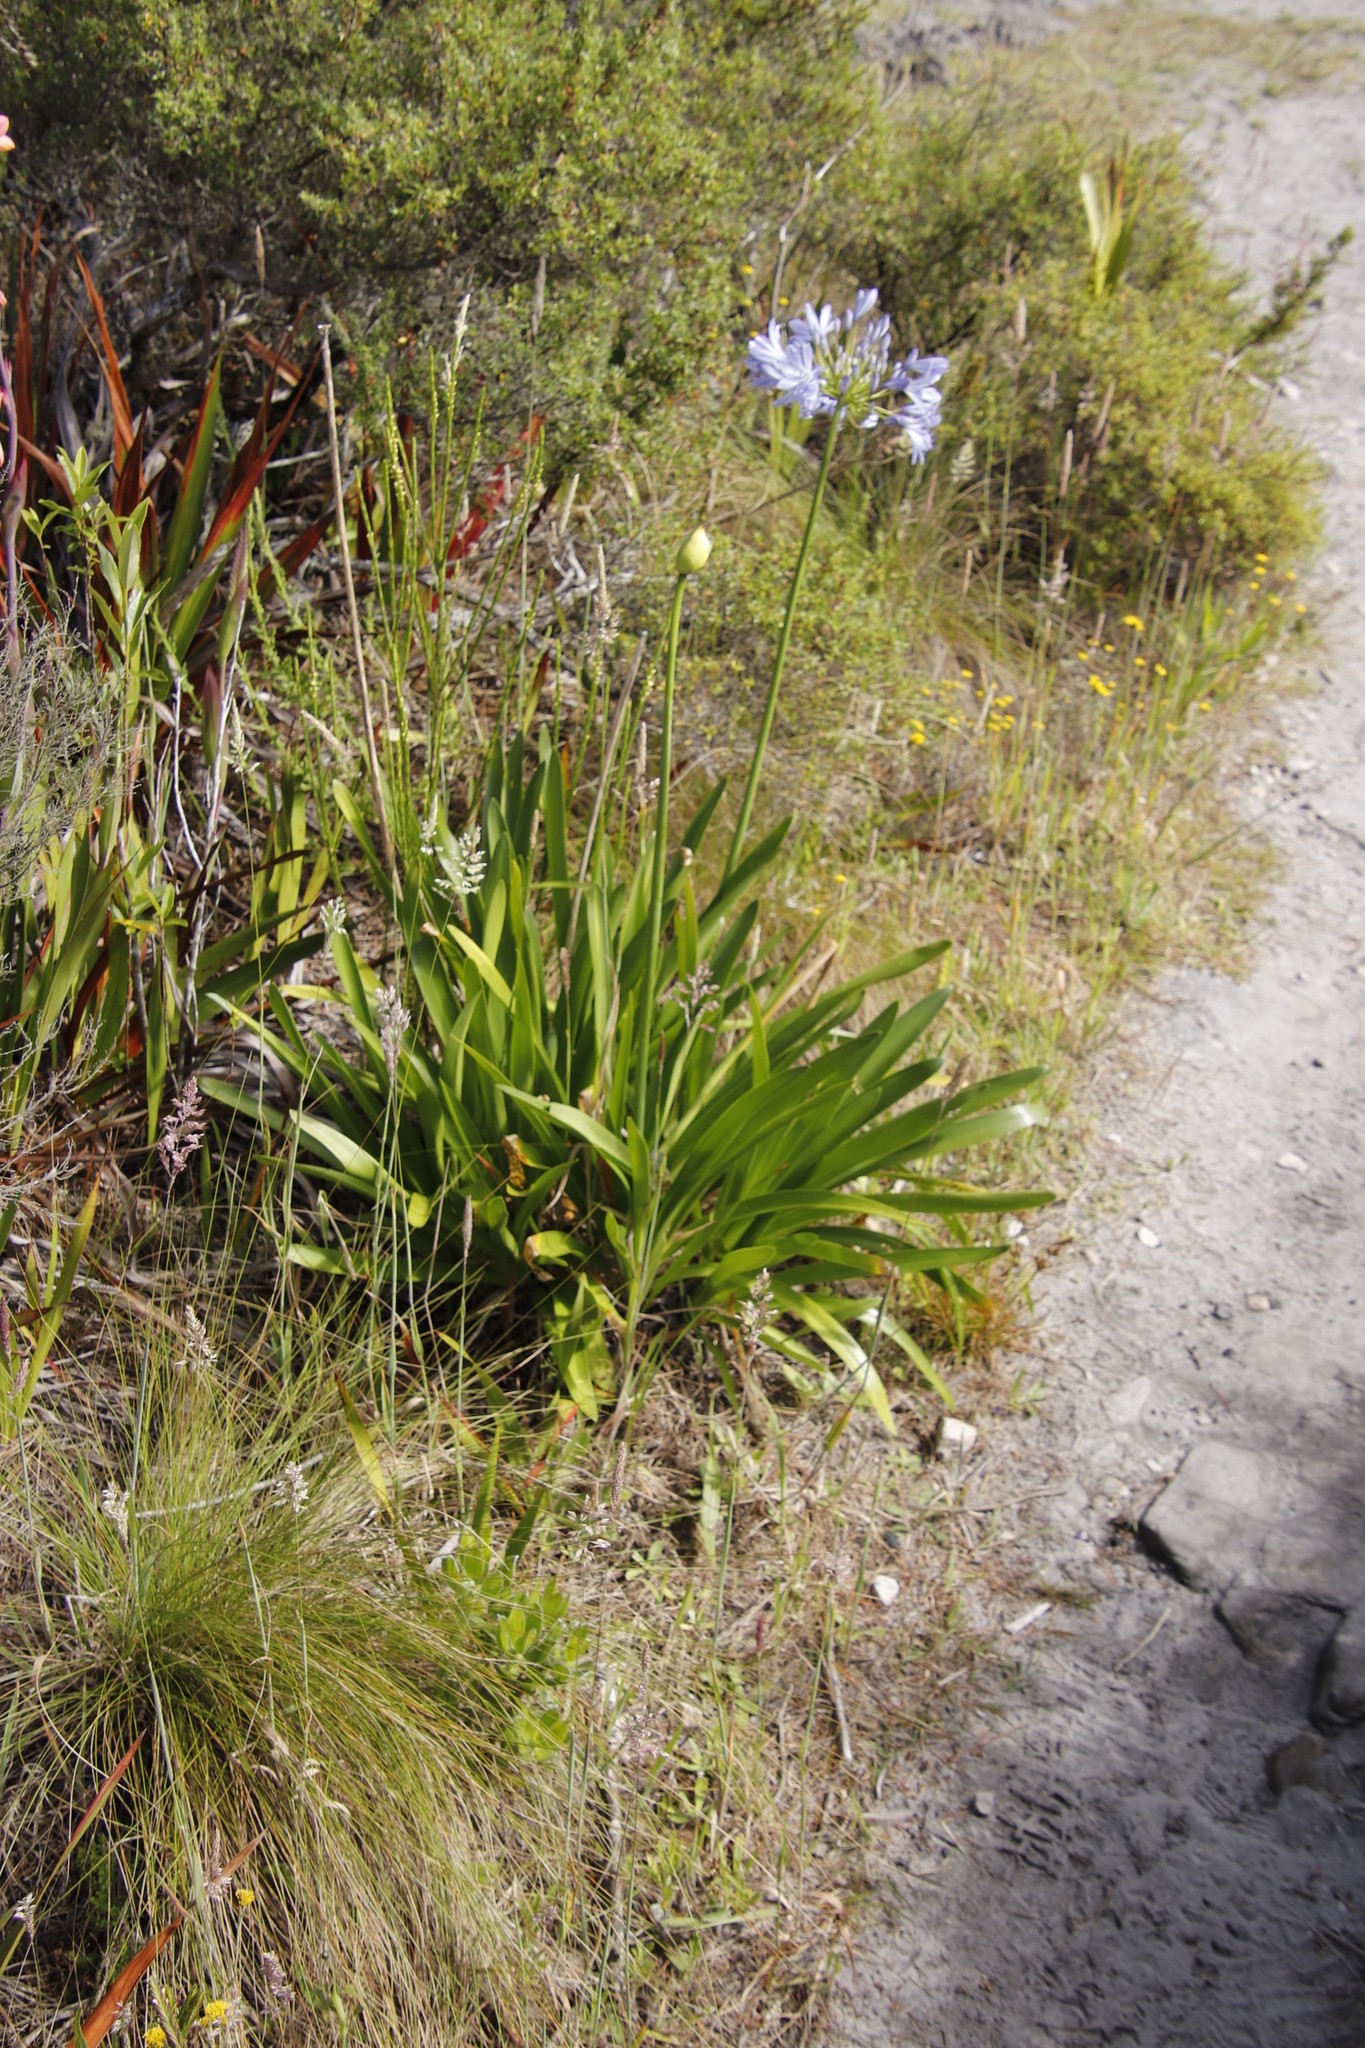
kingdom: Plantae
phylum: Tracheophyta
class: Liliopsida
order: Asparagales
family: Amaryllidaceae
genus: Agapanthus
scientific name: Agapanthus praecox
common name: African-lily
